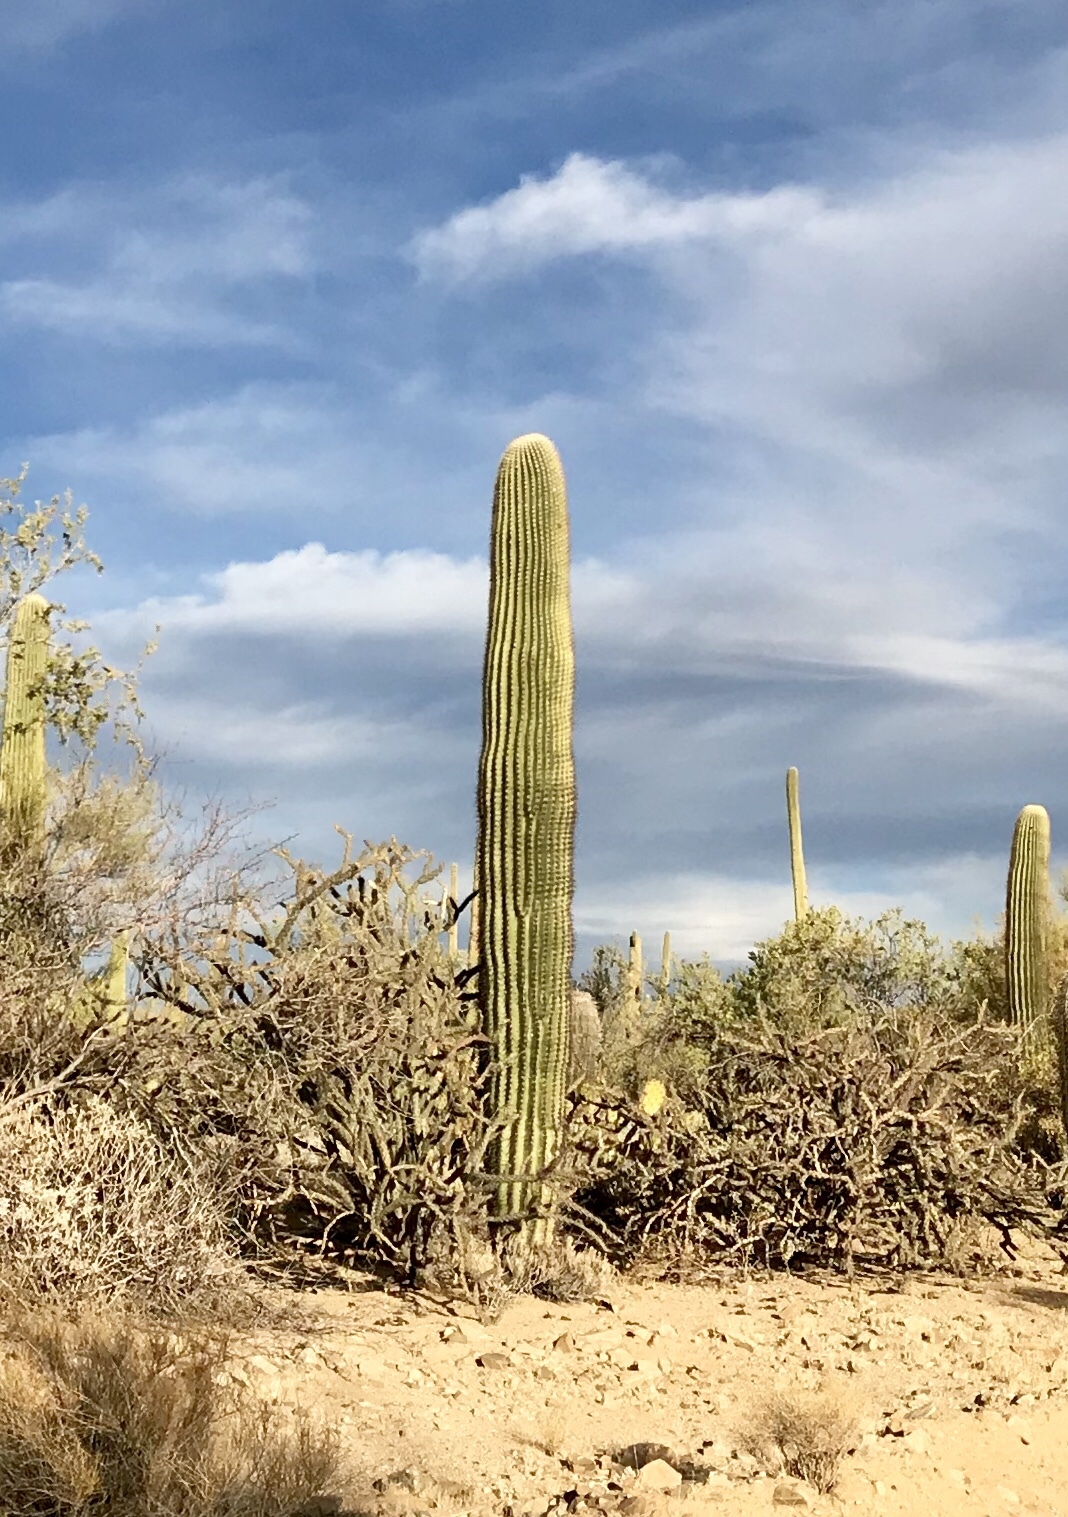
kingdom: Plantae
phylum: Tracheophyta
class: Magnoliopsida
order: Caryophyllales
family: Cactaceae
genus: Carnegiea
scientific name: Carnegiea gigantea
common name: Saguaro
